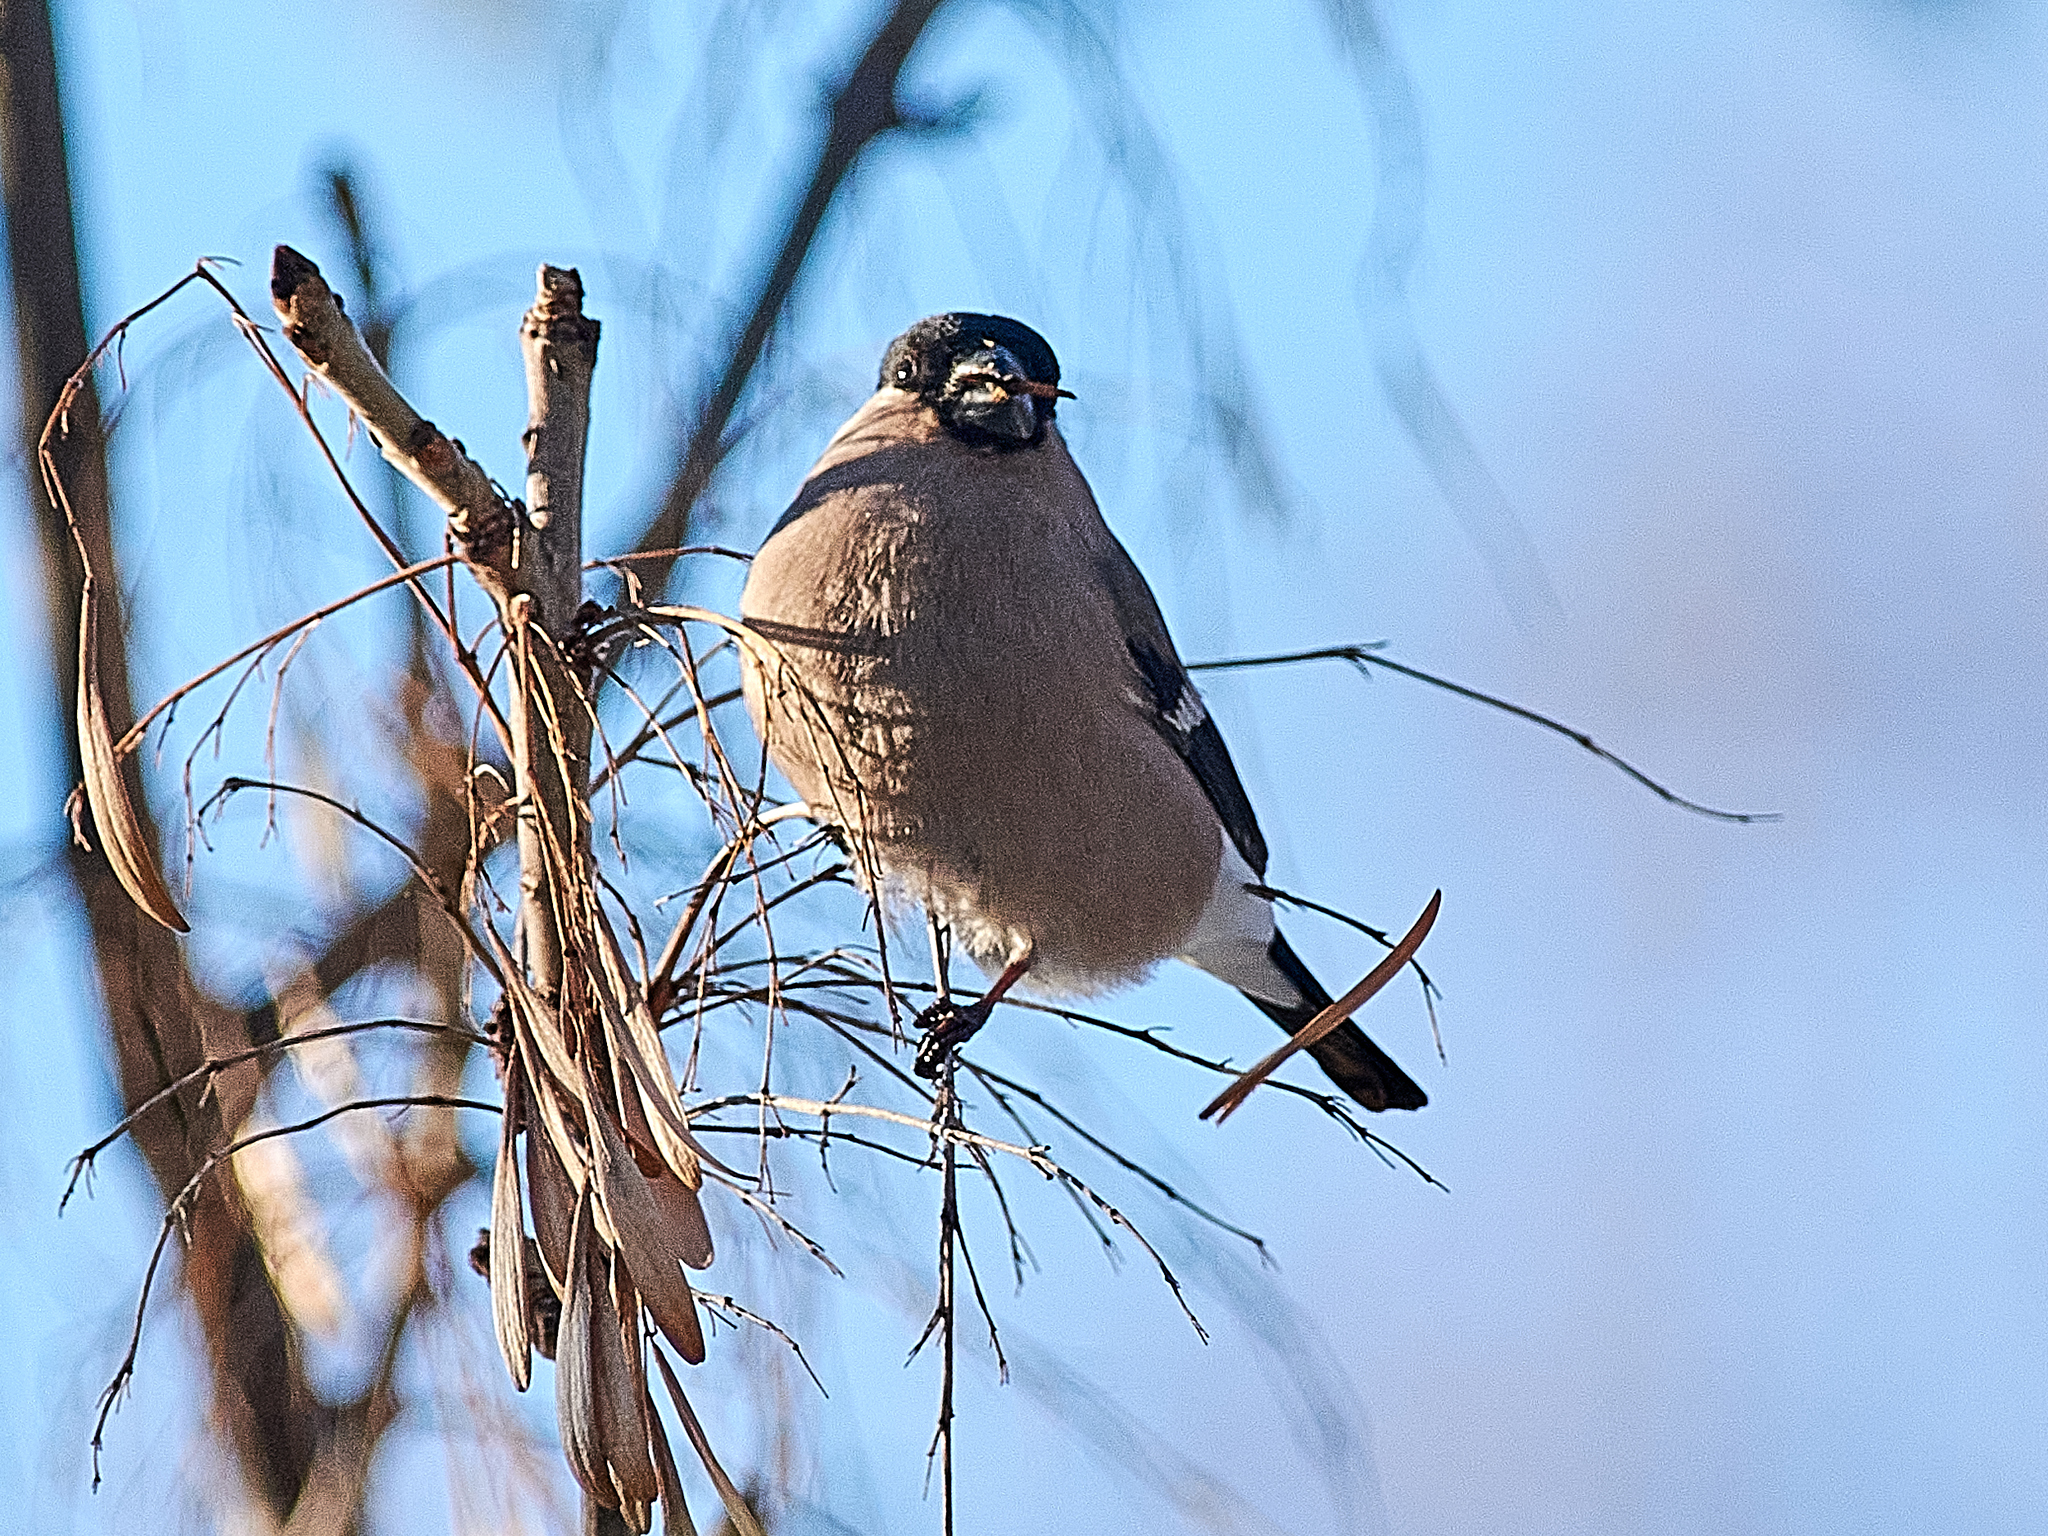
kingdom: Animalia
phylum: Chordata
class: Aves
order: Passeriformes
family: Fringillidae
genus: Pyrrhula
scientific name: Pyrrhula pyrrhula
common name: Eurasian bullfinch
